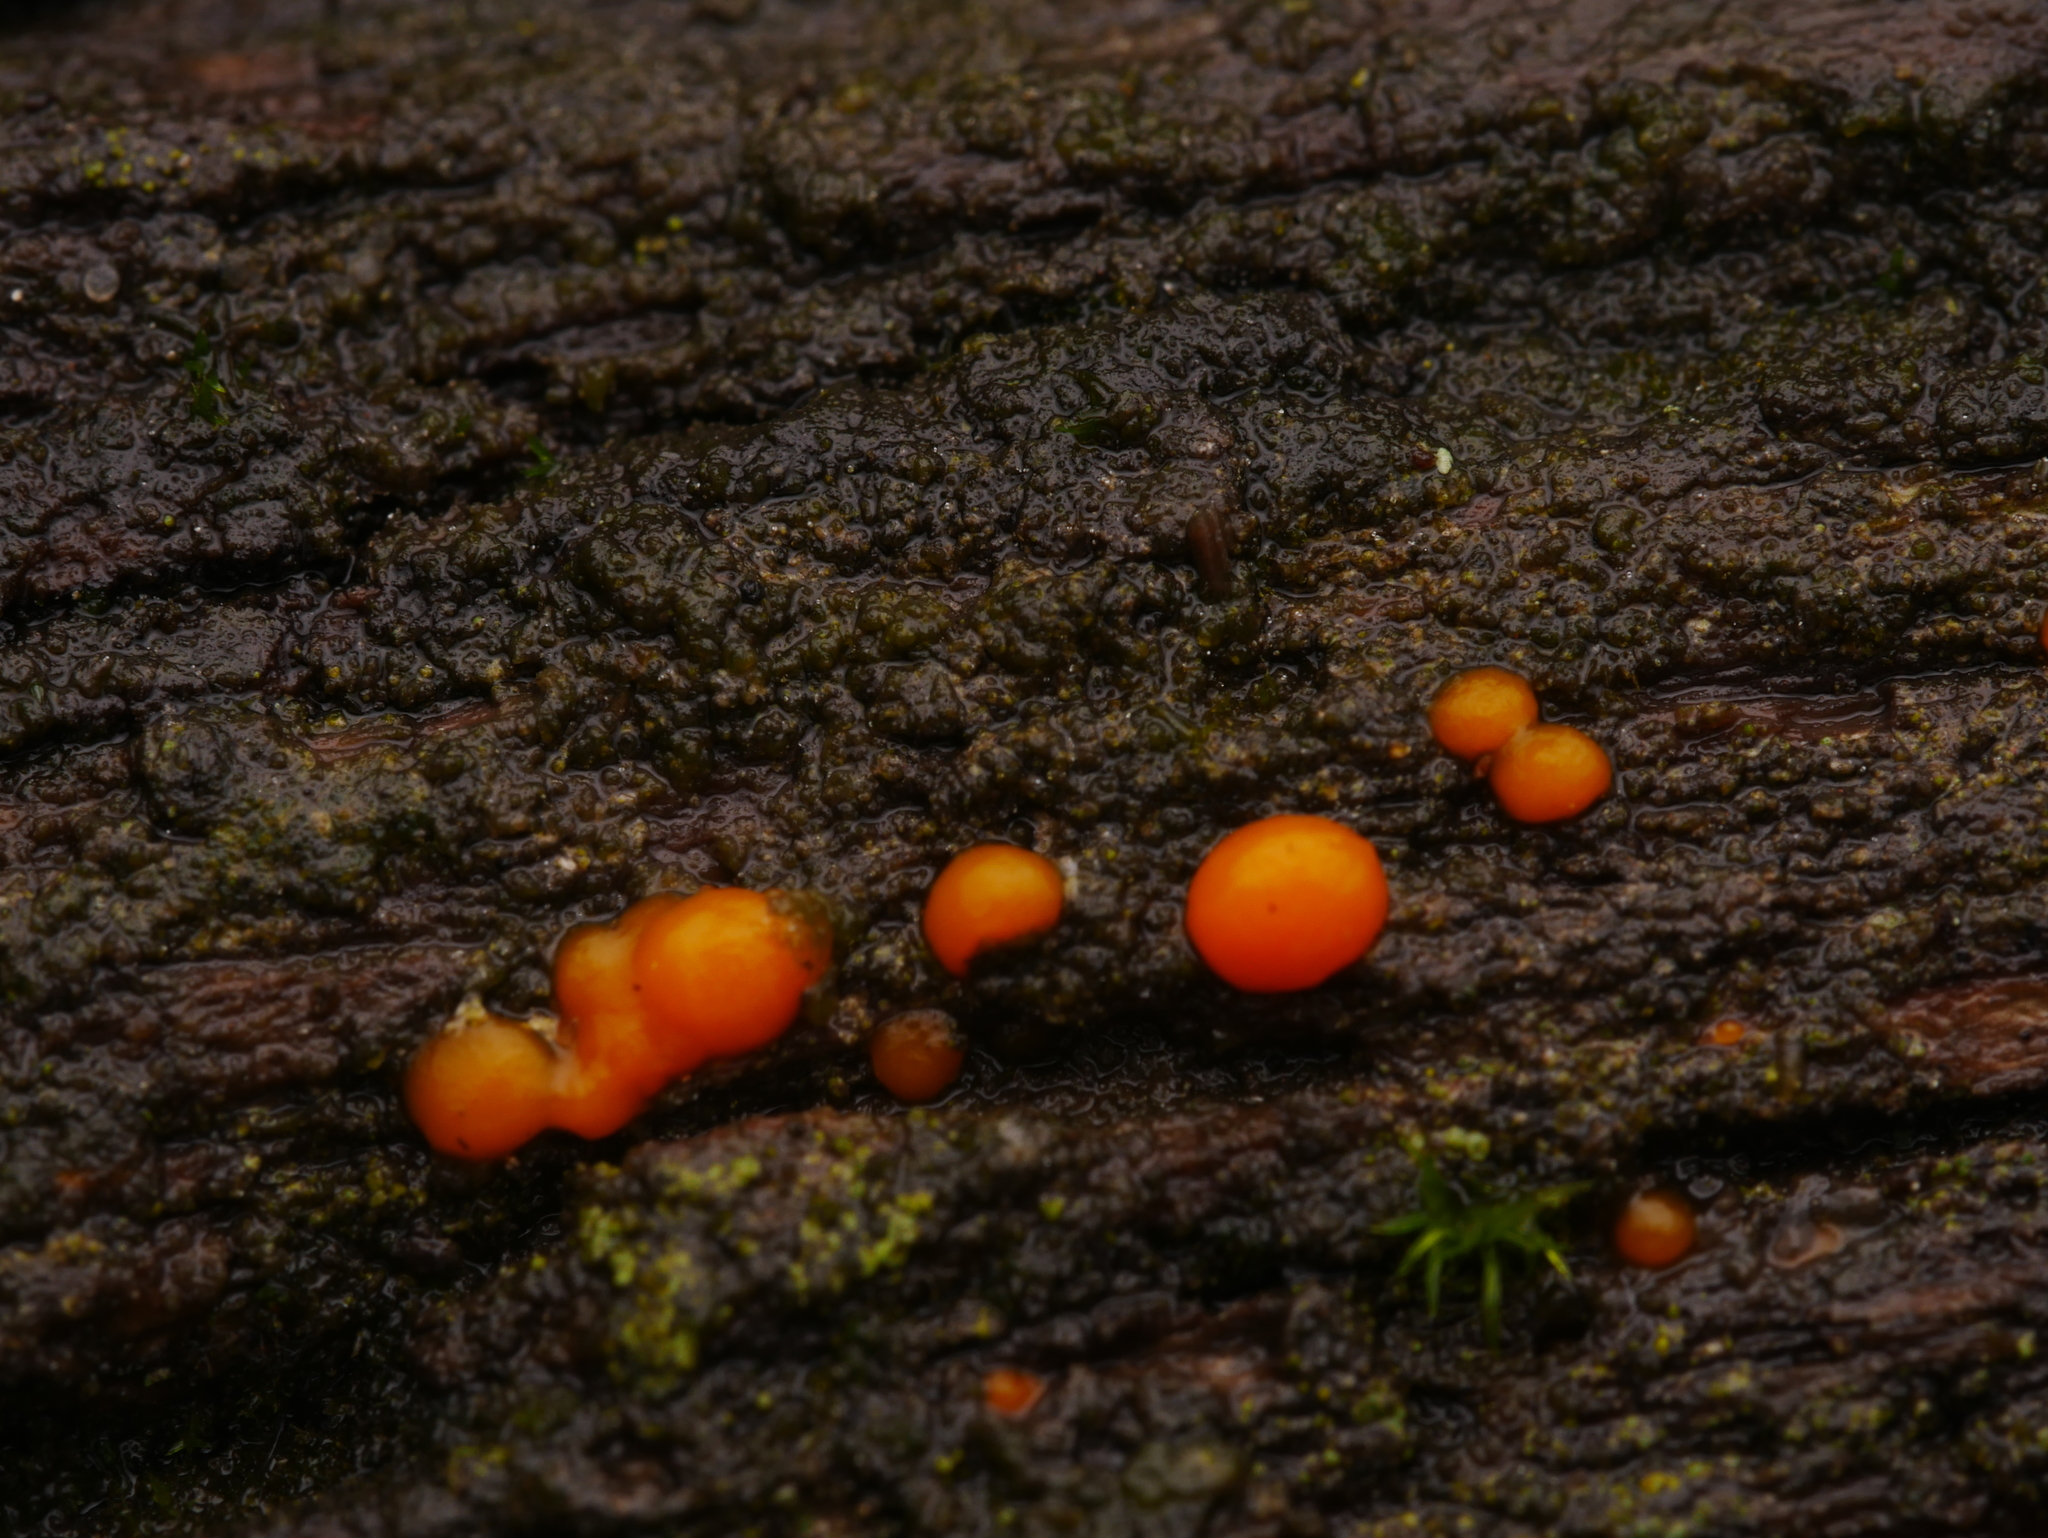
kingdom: Fungi
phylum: Basidiomycota
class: Dacrymycetes
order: Dacrymycetales
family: Dacrymycetaceae
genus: Dacrymyces
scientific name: Dacrymyces stillatus
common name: Common jelly spot
